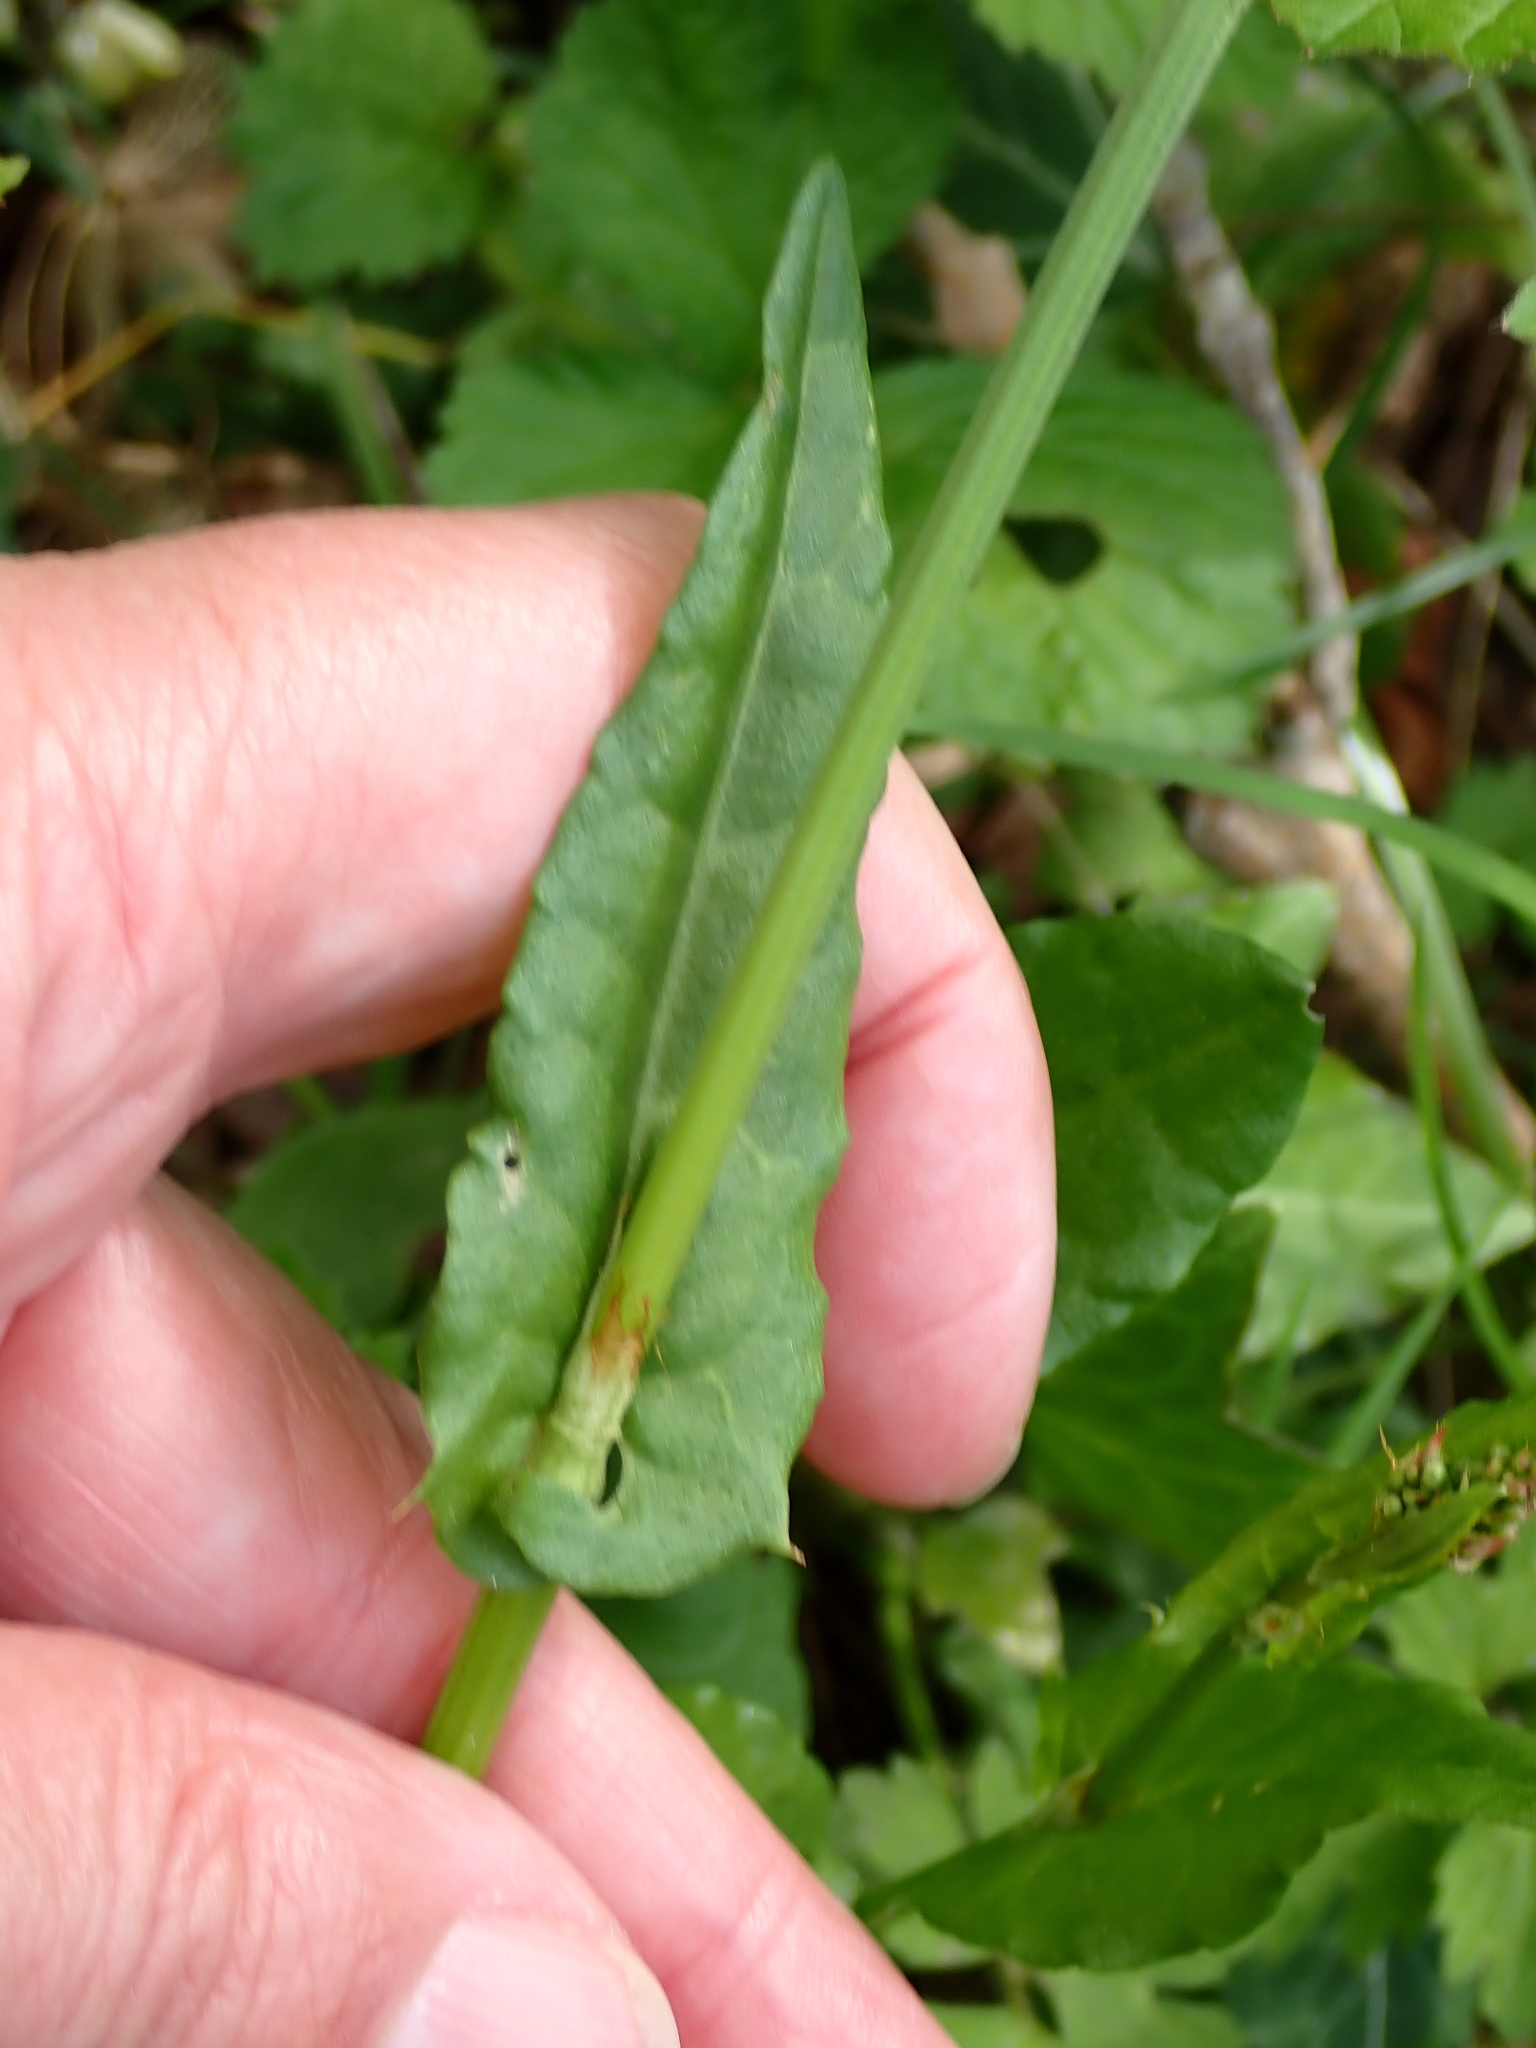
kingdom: Plantae
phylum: Tracheophyta
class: Magnoliopsida
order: Caryophyllales
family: Polygonaceae
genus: Rumex
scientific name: Rumex acetosa
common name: Garden sorrel
